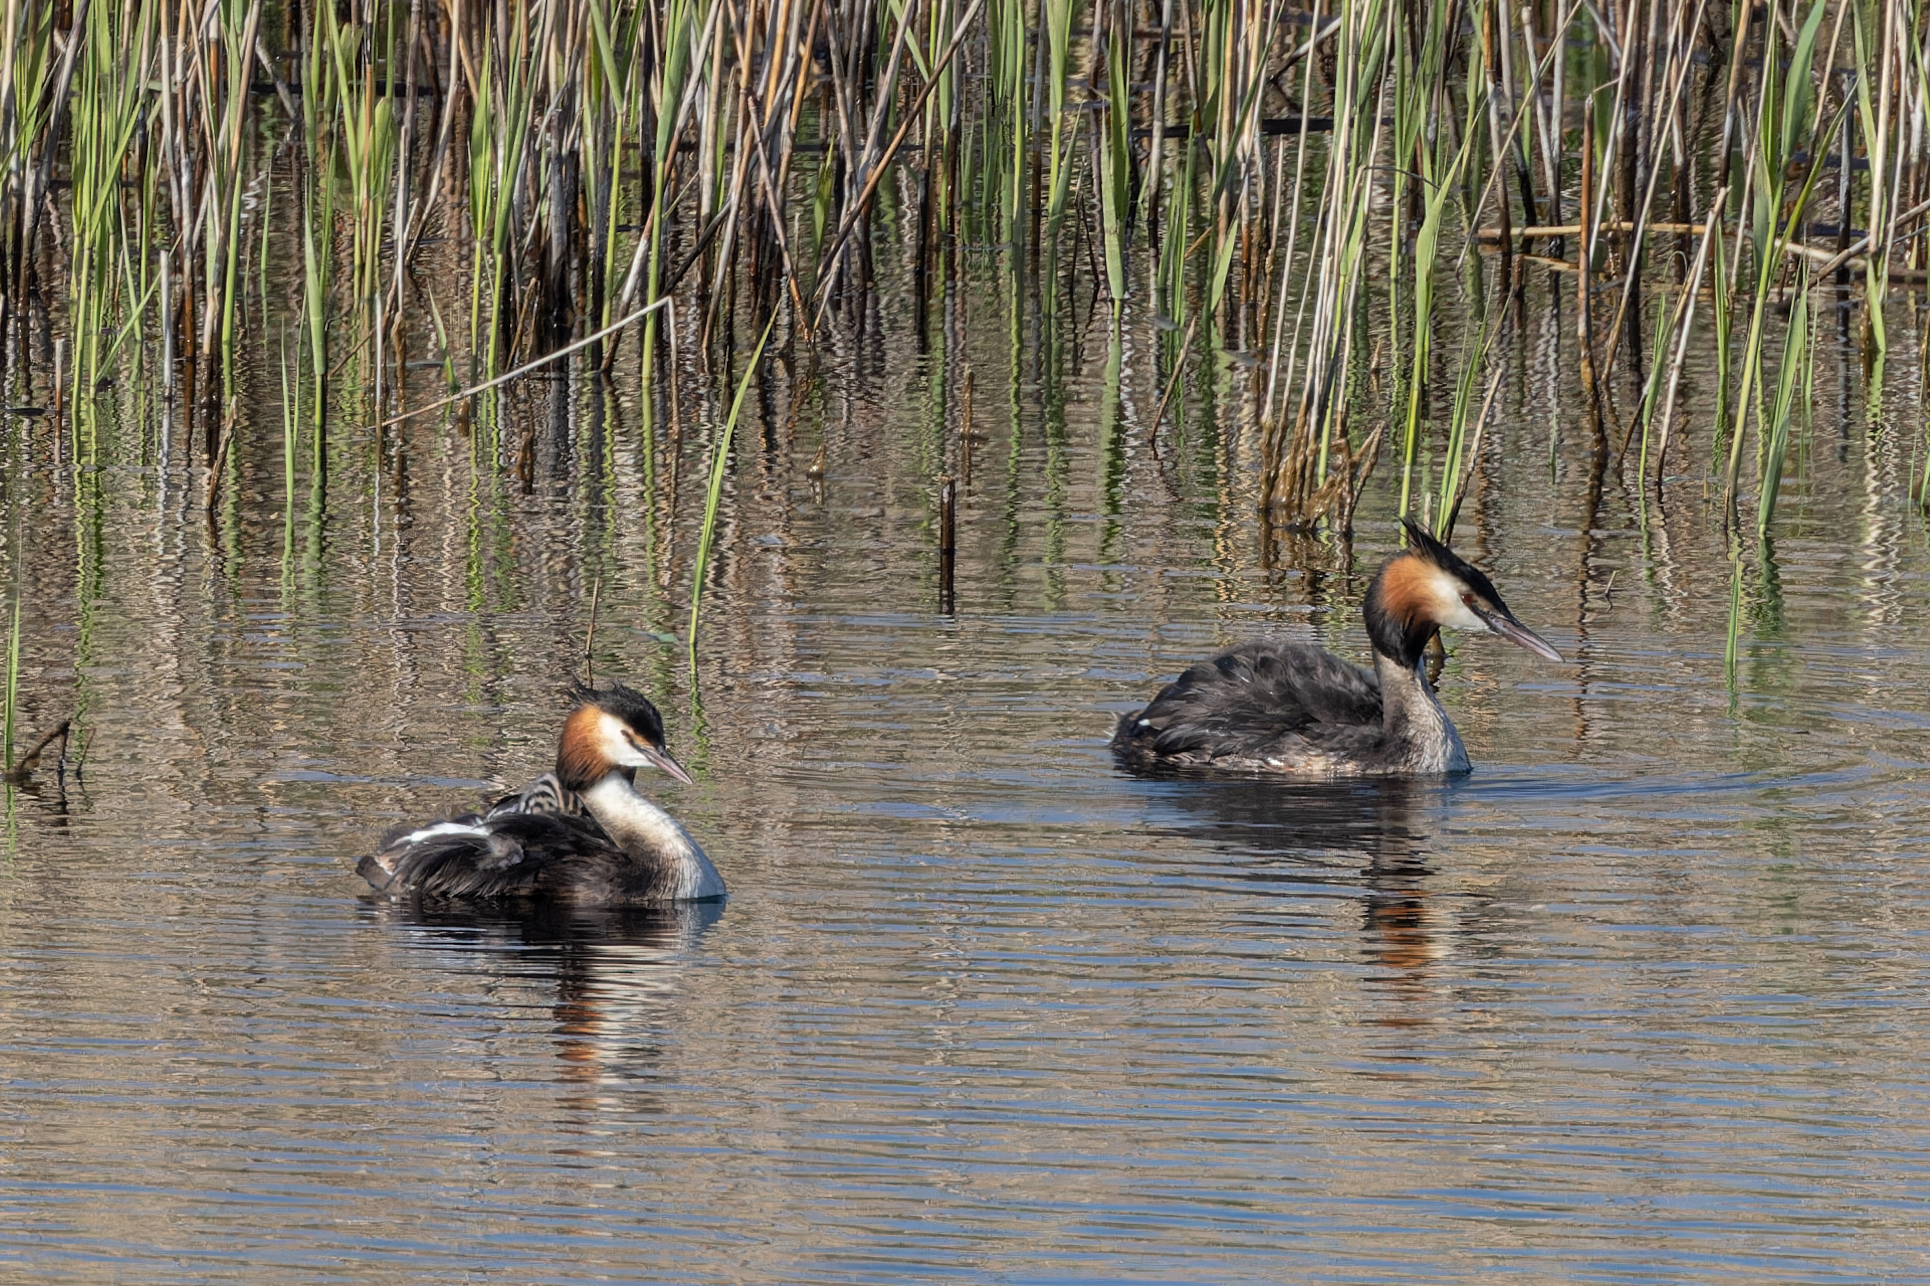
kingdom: Animalia
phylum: Chordata
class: Aves
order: Podicipediformes
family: Podicipedidae
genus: Podiceps
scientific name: Podiceps cristatus
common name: Great crested grebe
